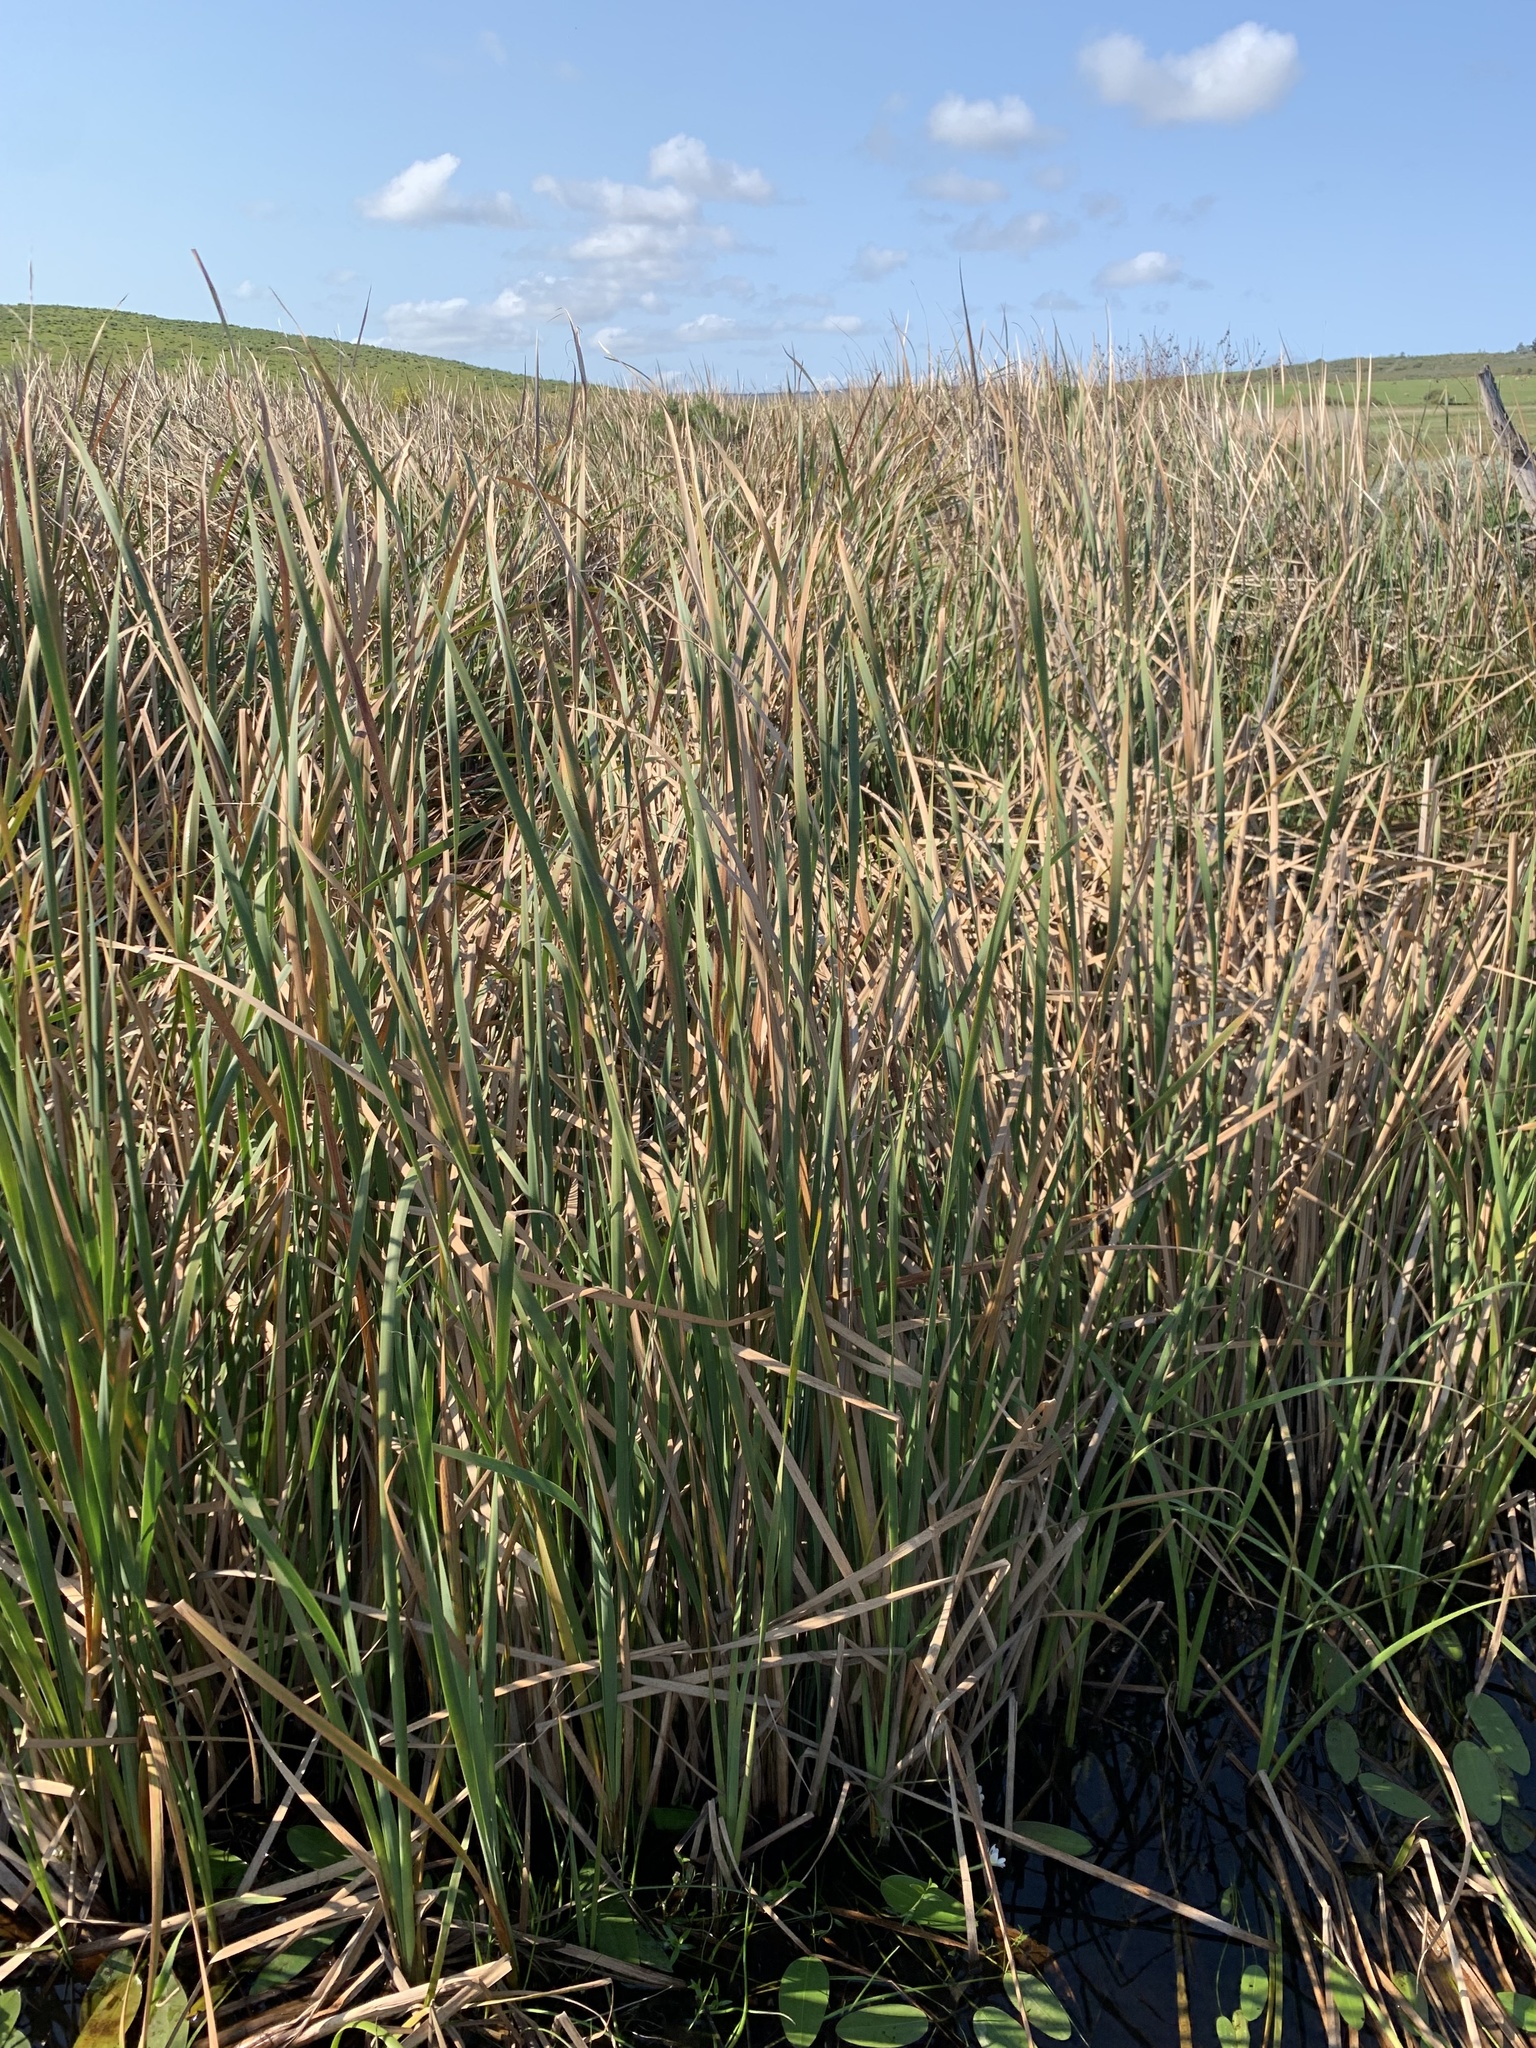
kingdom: Plantae
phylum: Tracheophyta
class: Liliopsida
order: Poales
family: Typhaceae
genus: Typha
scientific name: Typha capensis
